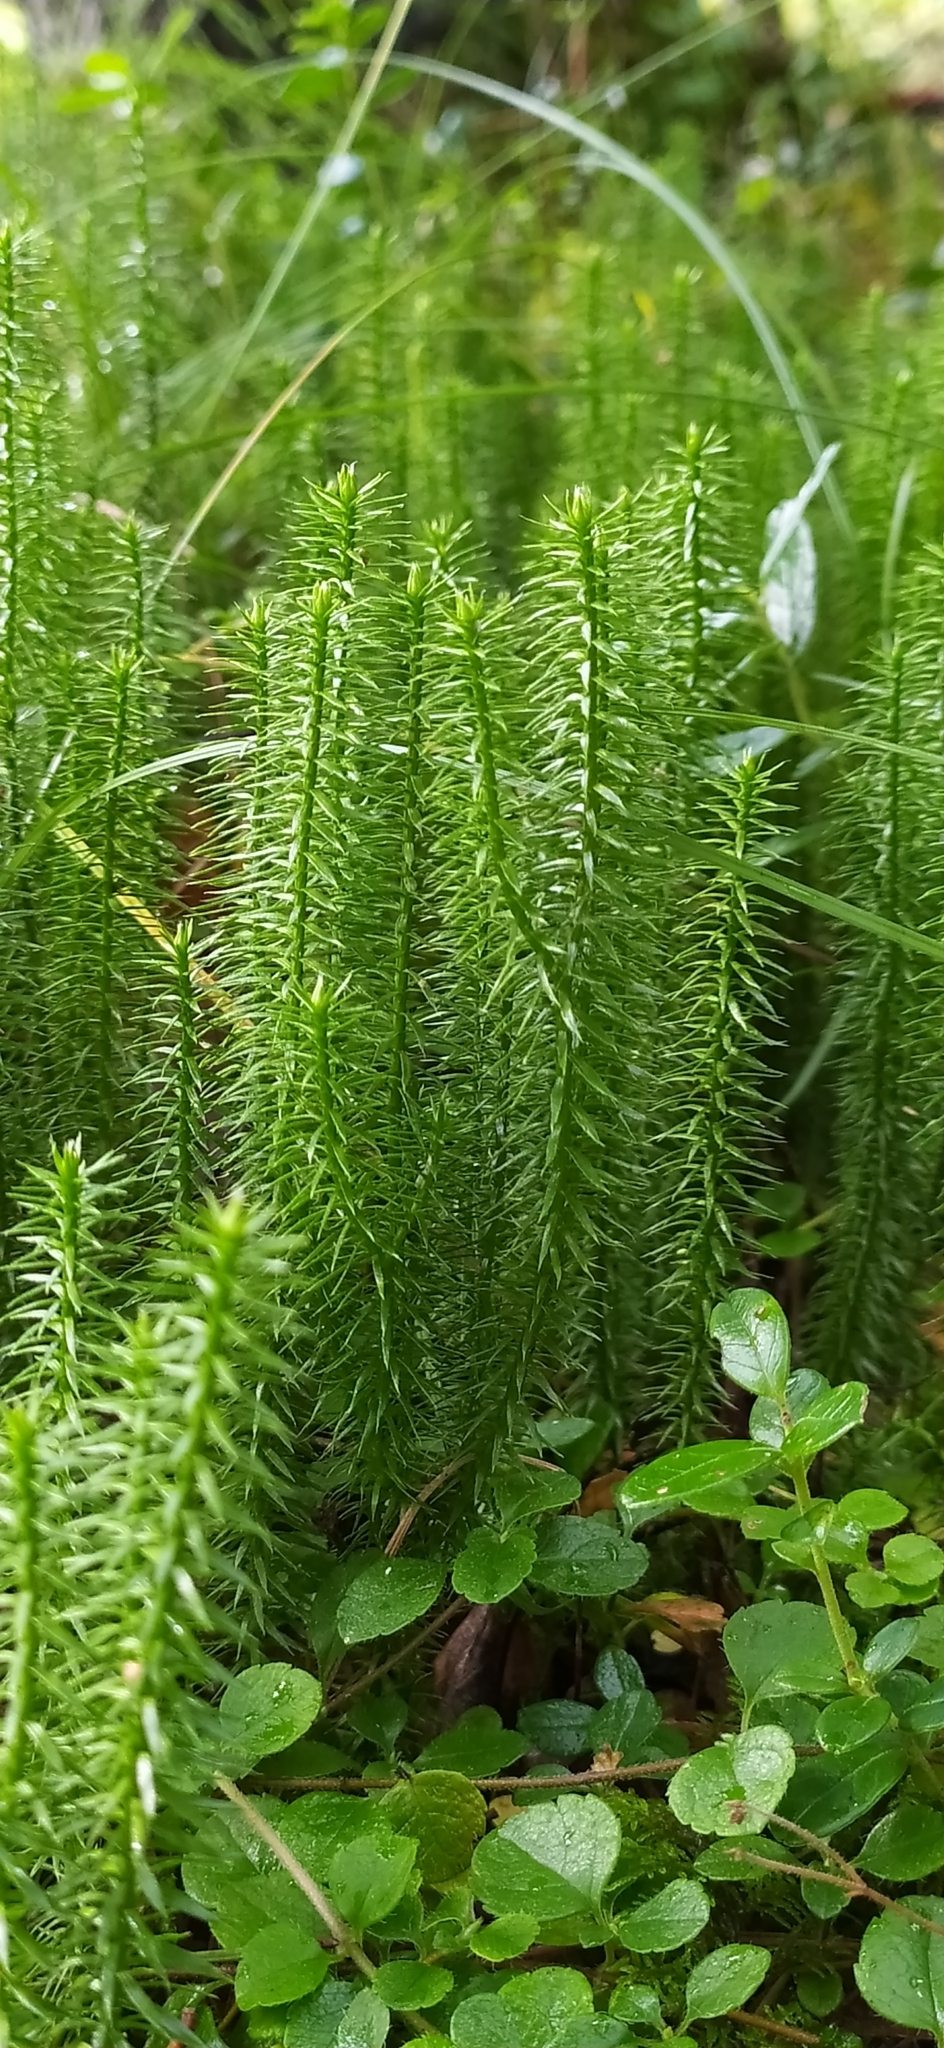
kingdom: Plantae
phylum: Tracheophyta
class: Lycopodiopsida
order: Lycopodiales
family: Lycopodiaceae
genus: Spinulum
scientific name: Spinulum annotinum
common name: Interrupted club-moss
